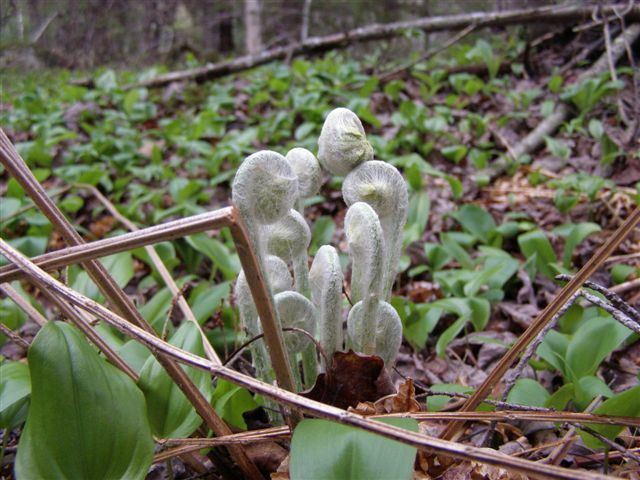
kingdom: Plantae
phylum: Tracheophyta
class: Polypodiopsida
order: Osmundales
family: Osmundaceae
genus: Osmundastrum
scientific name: Osmundastrum cinnamomeum
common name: Cinnamon fern
